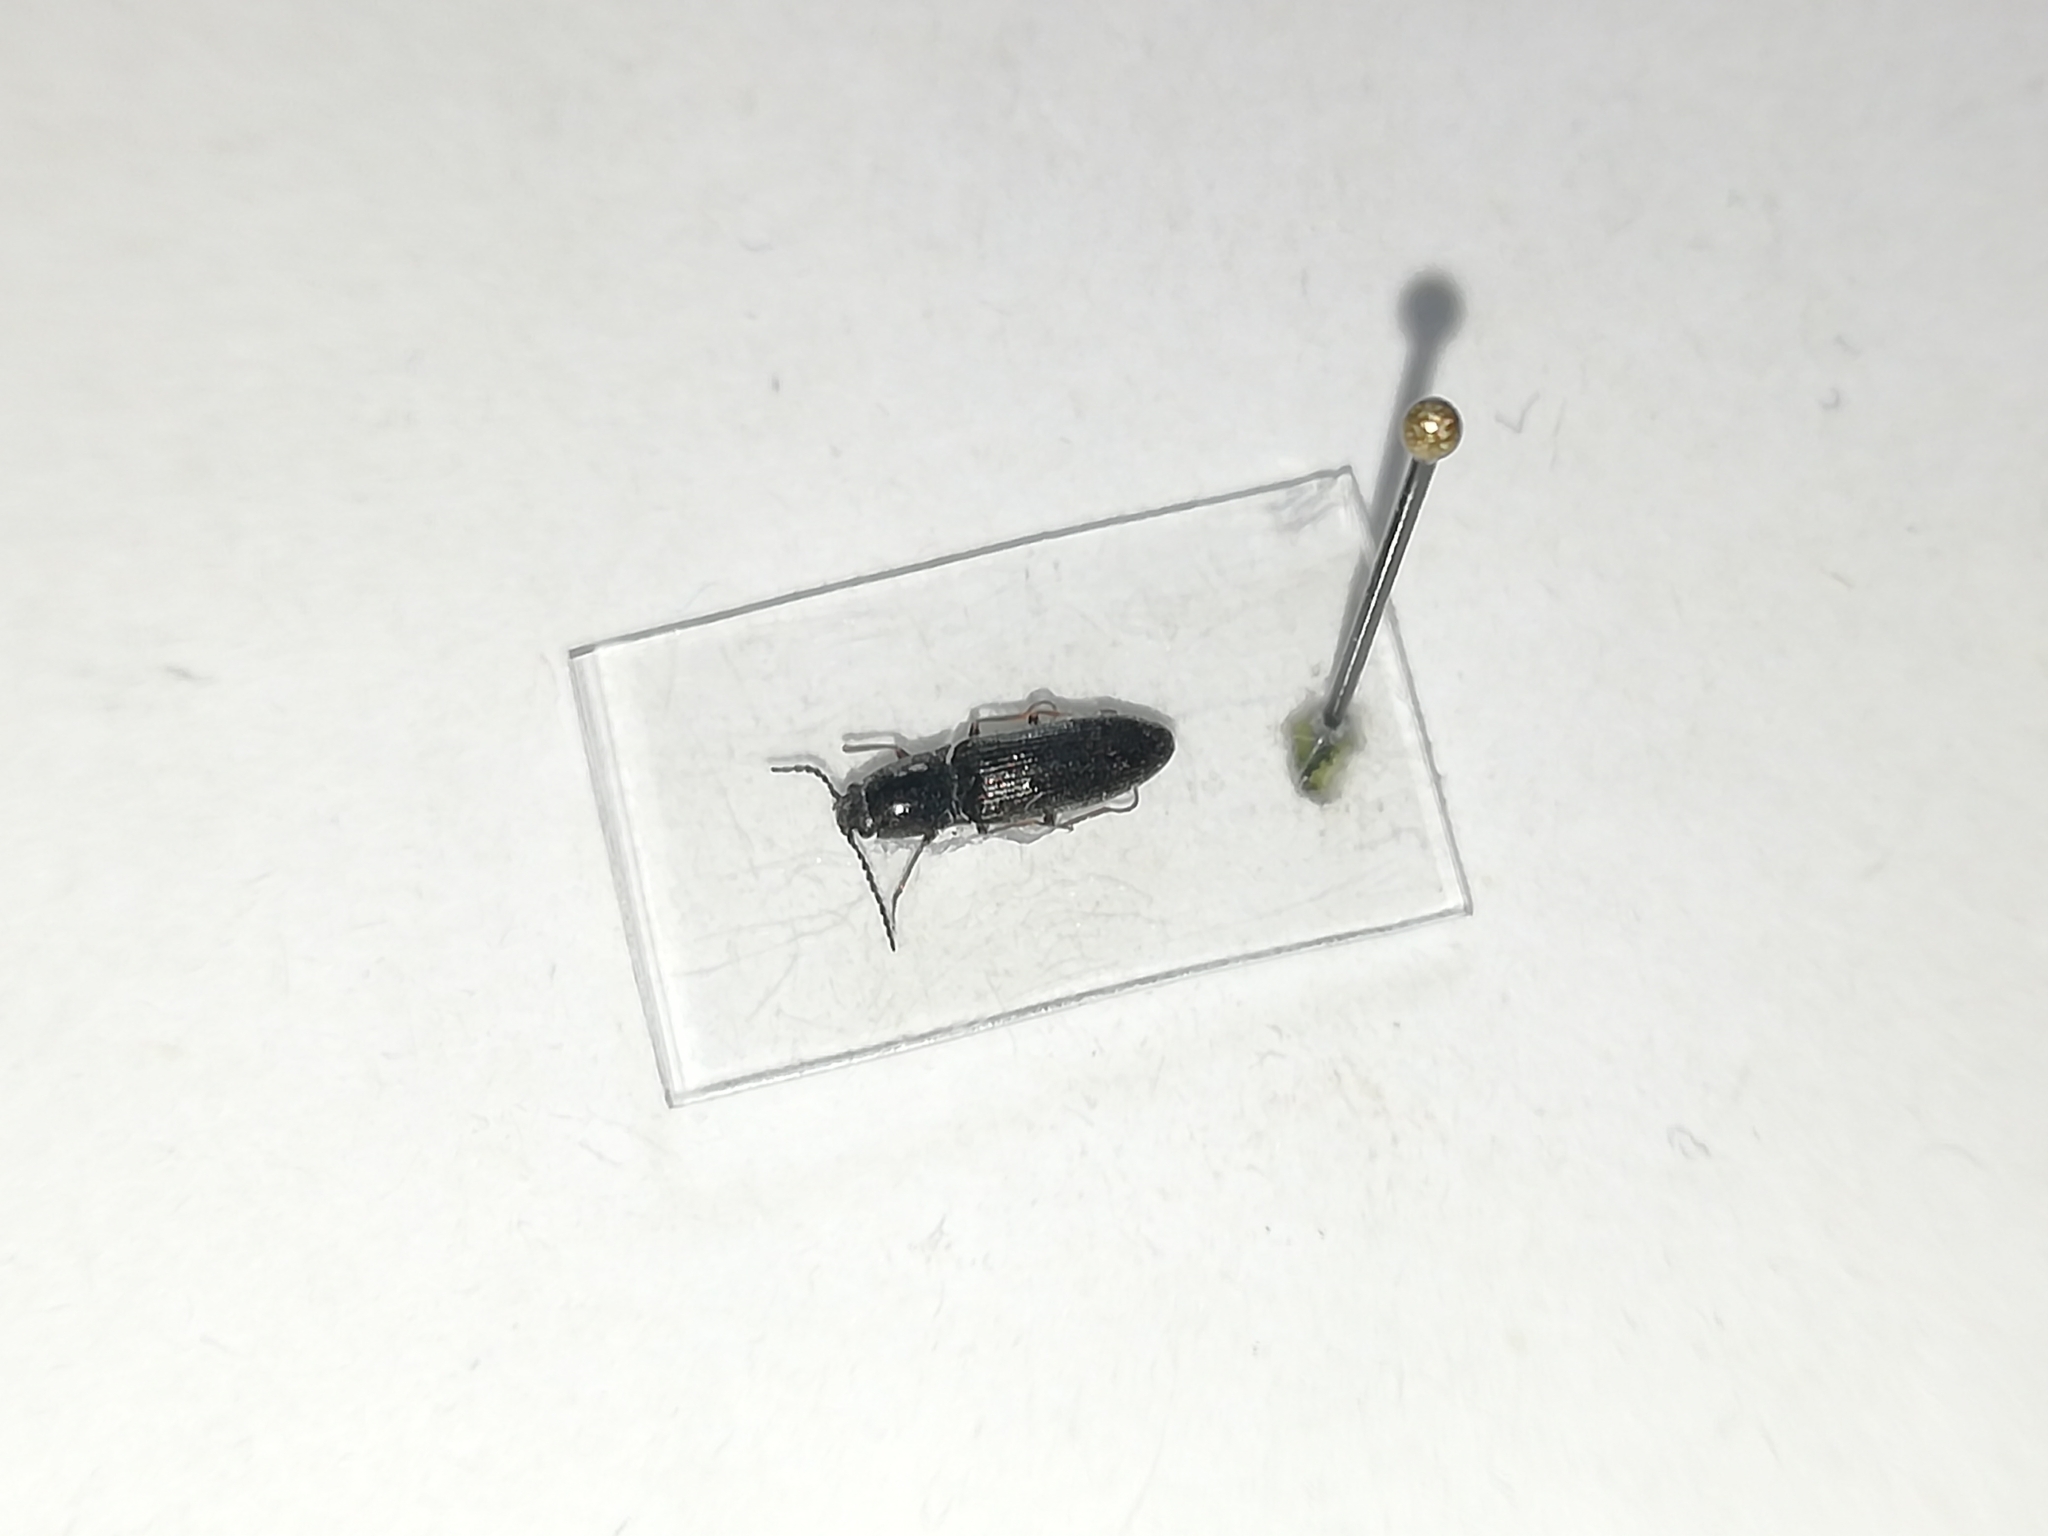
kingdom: Animalia
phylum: Arthropoda
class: Insecta
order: Coleoptera
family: Elateridae
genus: Hemicrepidius
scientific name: Hemicrepidius niger
